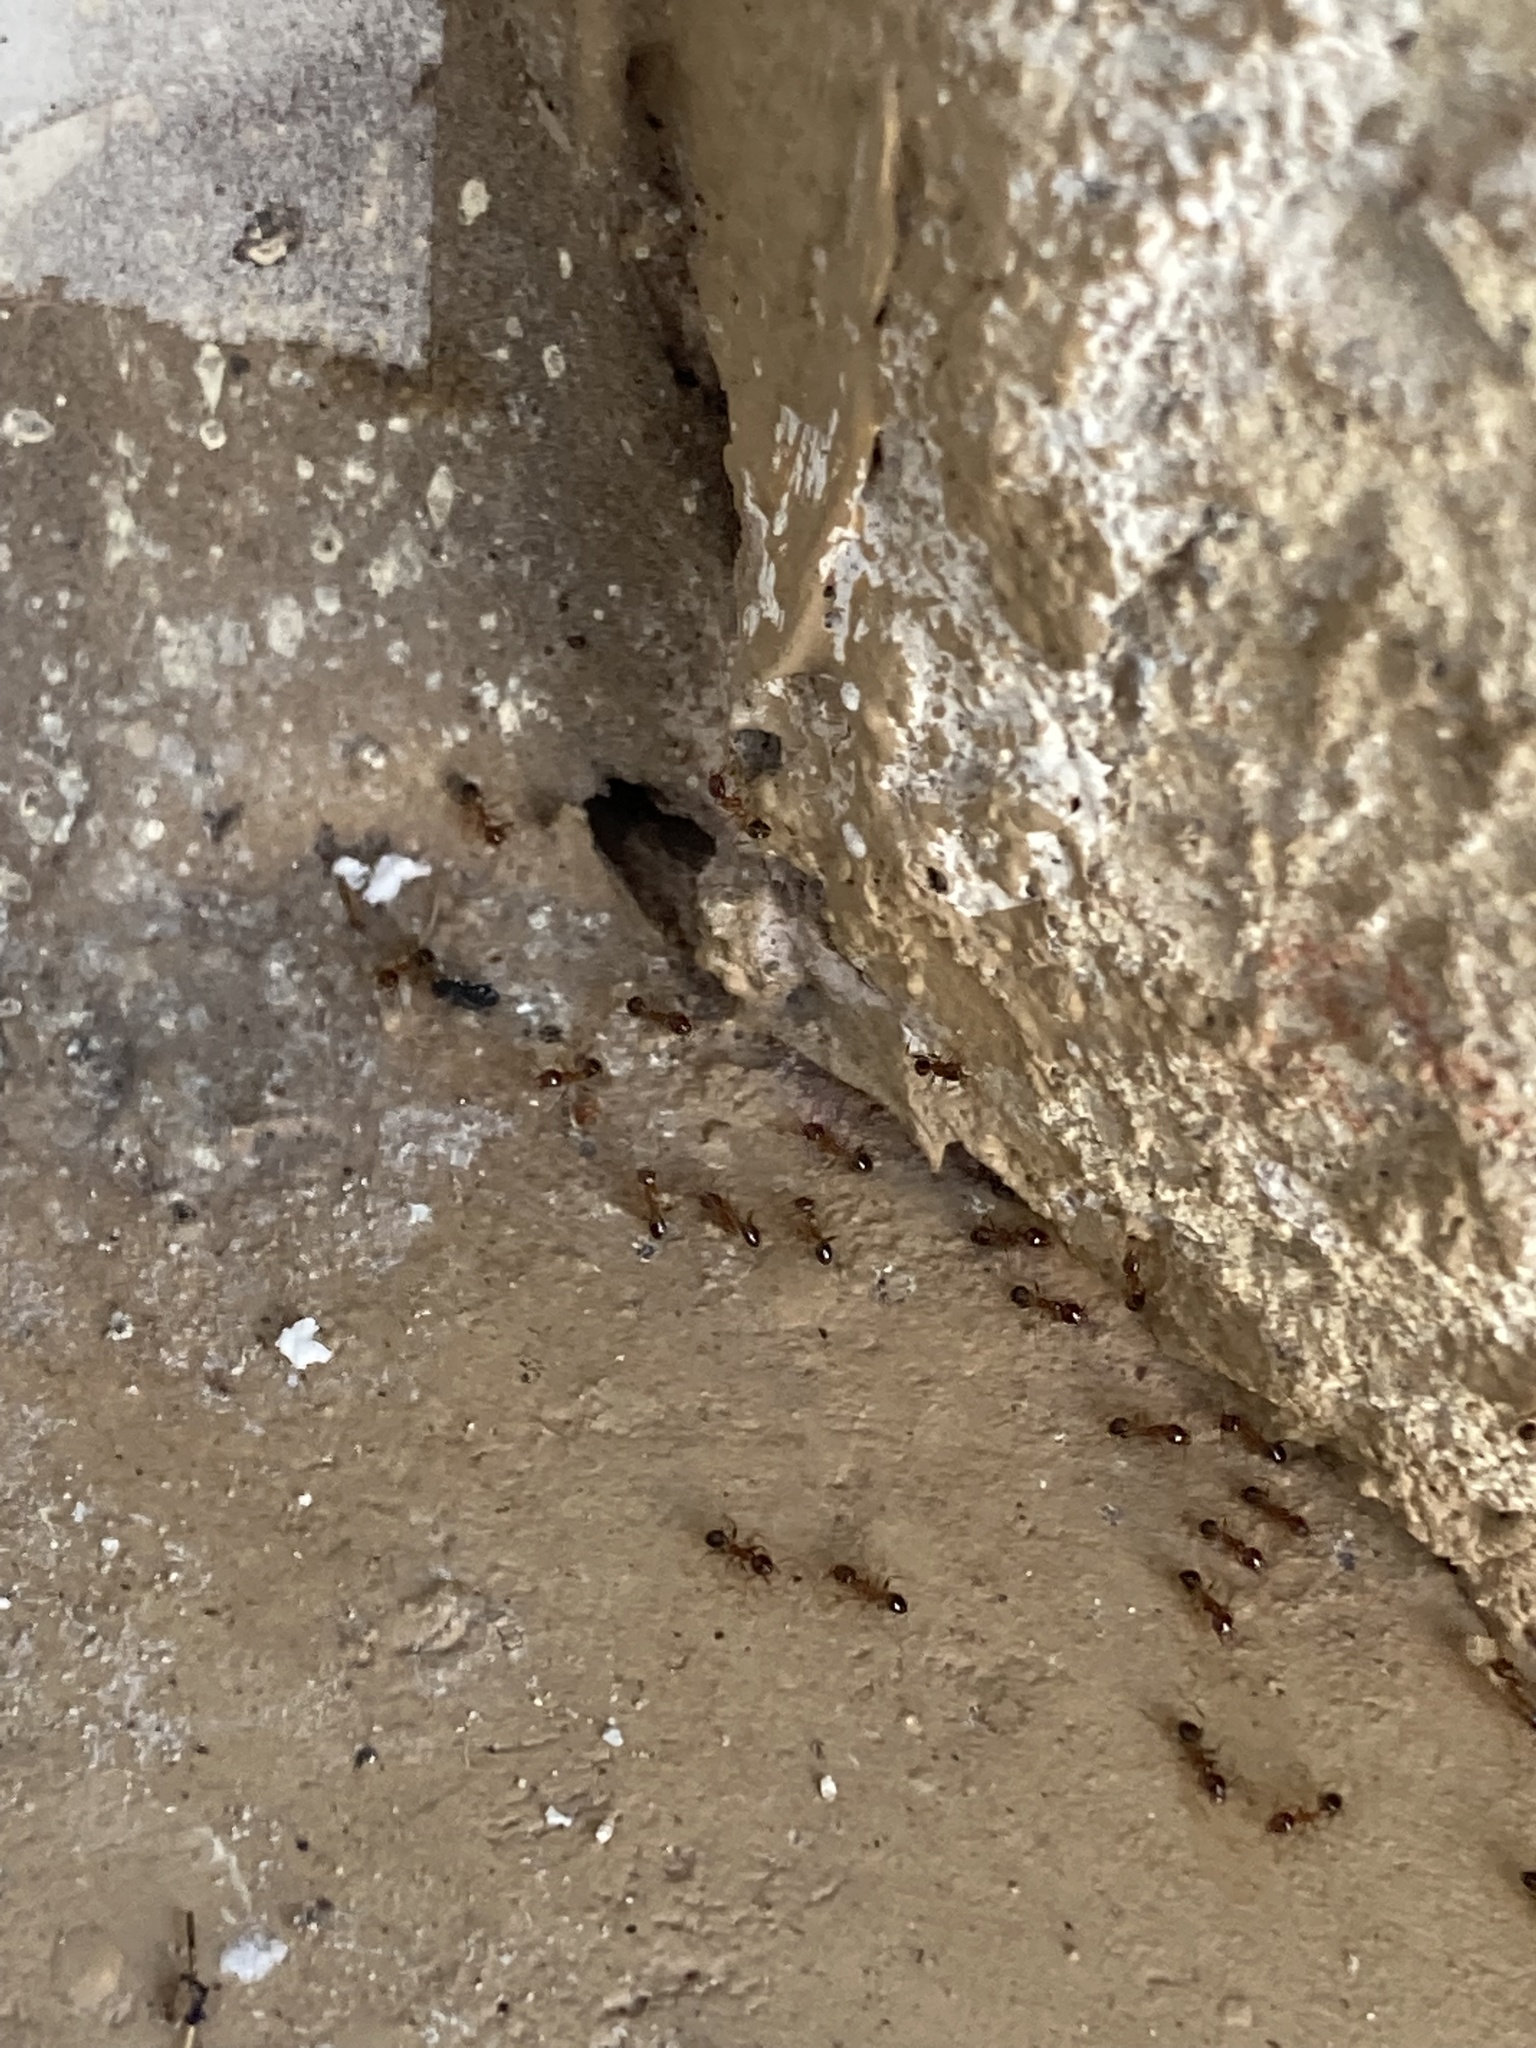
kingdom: Animalia
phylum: Arthropoda
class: Insecta
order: Hymenoptera
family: Formicidae
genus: Pheidole
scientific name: Pheidole megacephala
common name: Bigheaded ant
